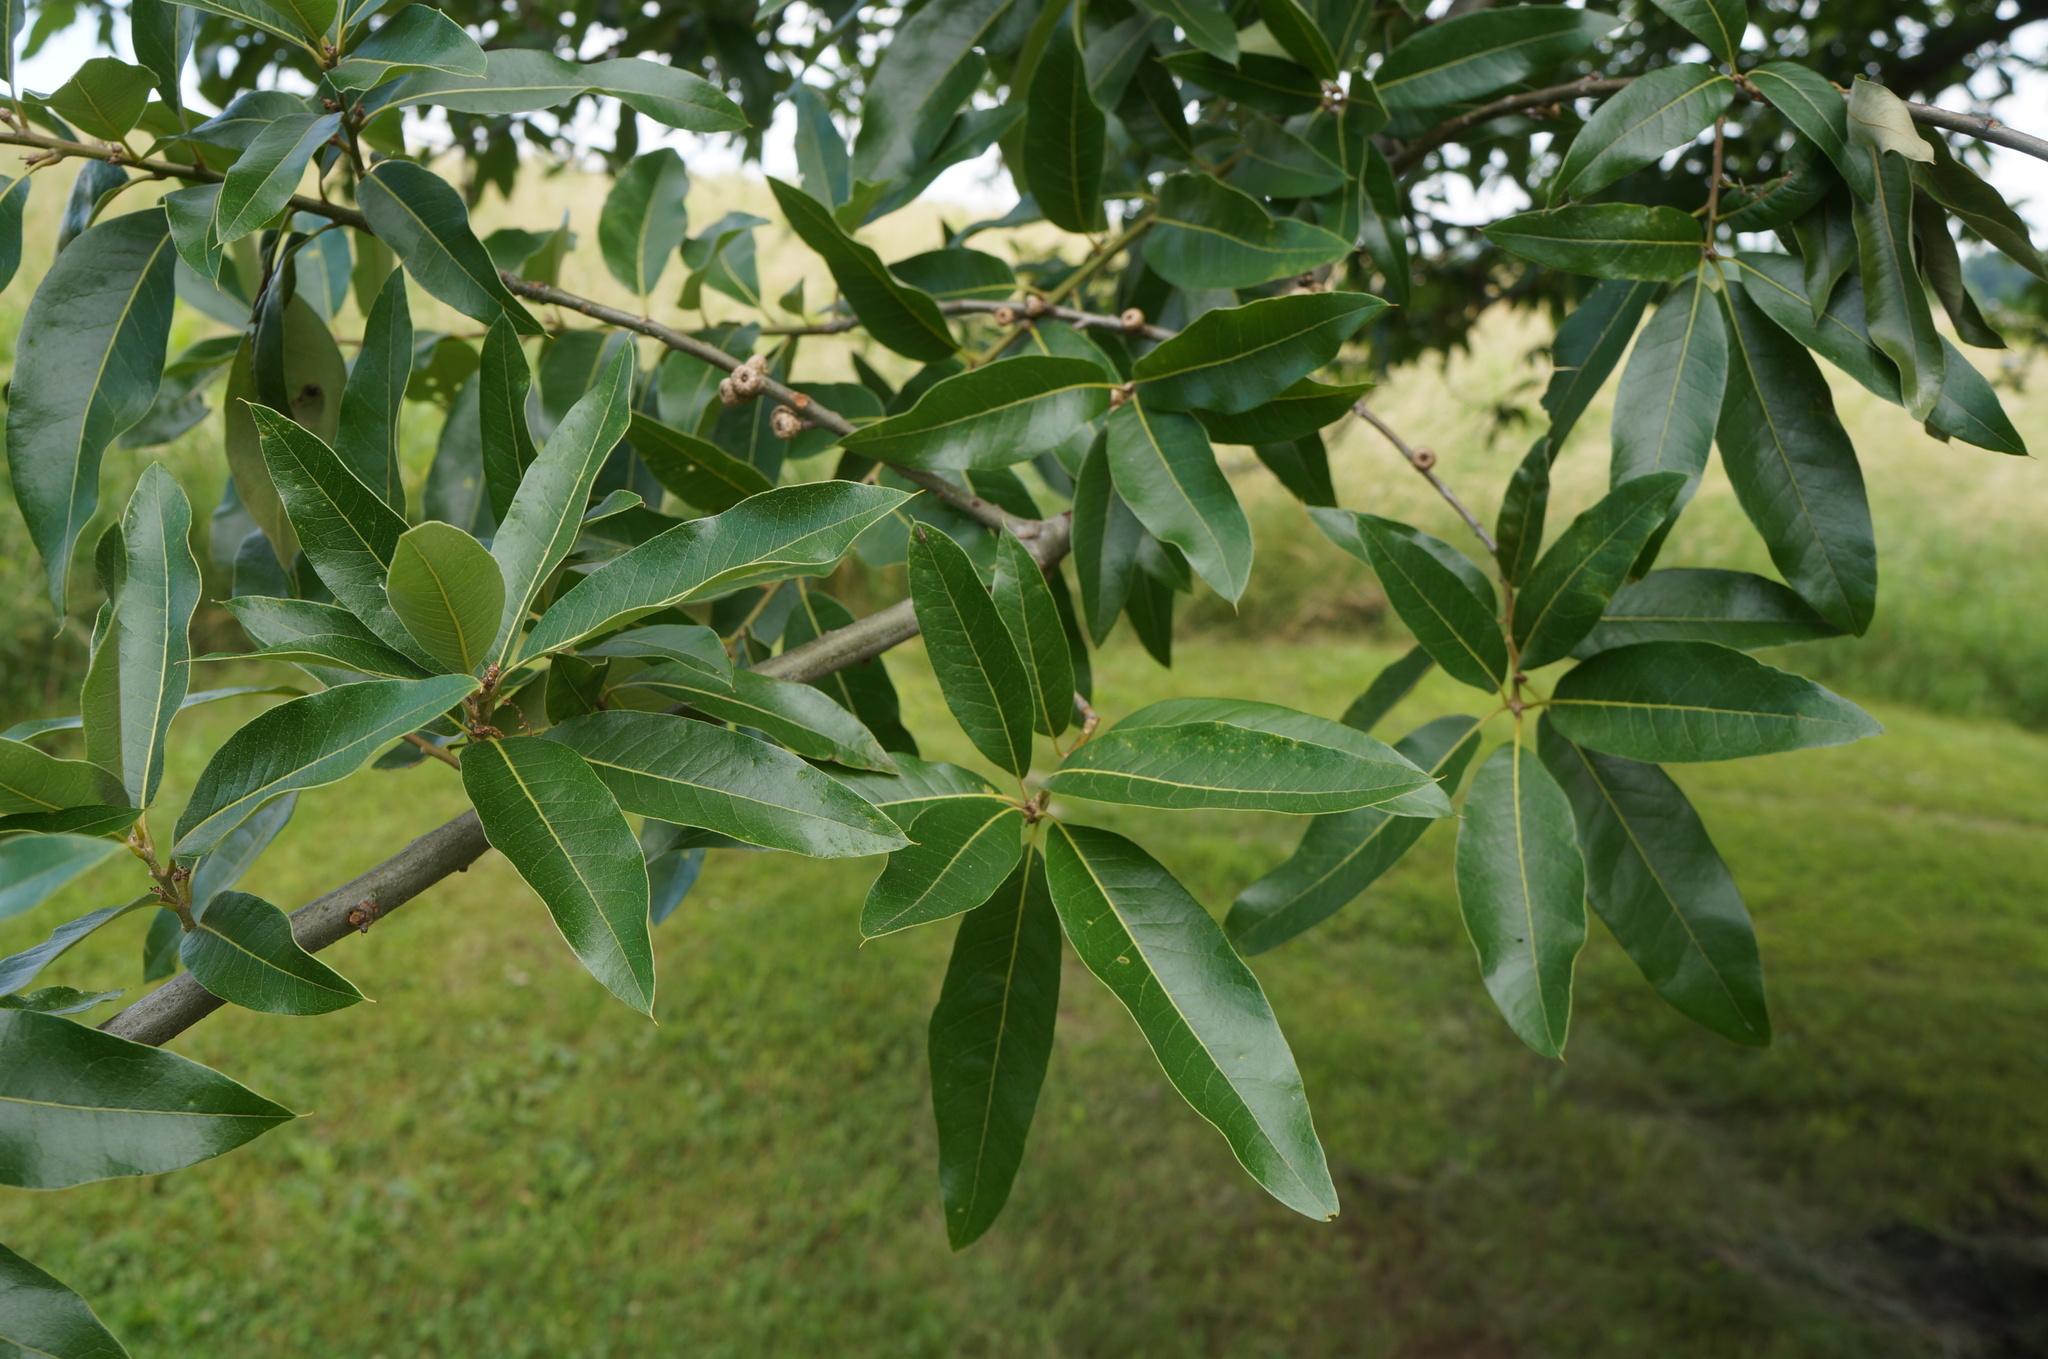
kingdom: Plantae
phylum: Tracheophyta
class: Magnoliopsida
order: Fagales
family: Fagaceae
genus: Quercus
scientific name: Quercus imbricaria
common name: Shingle oak
